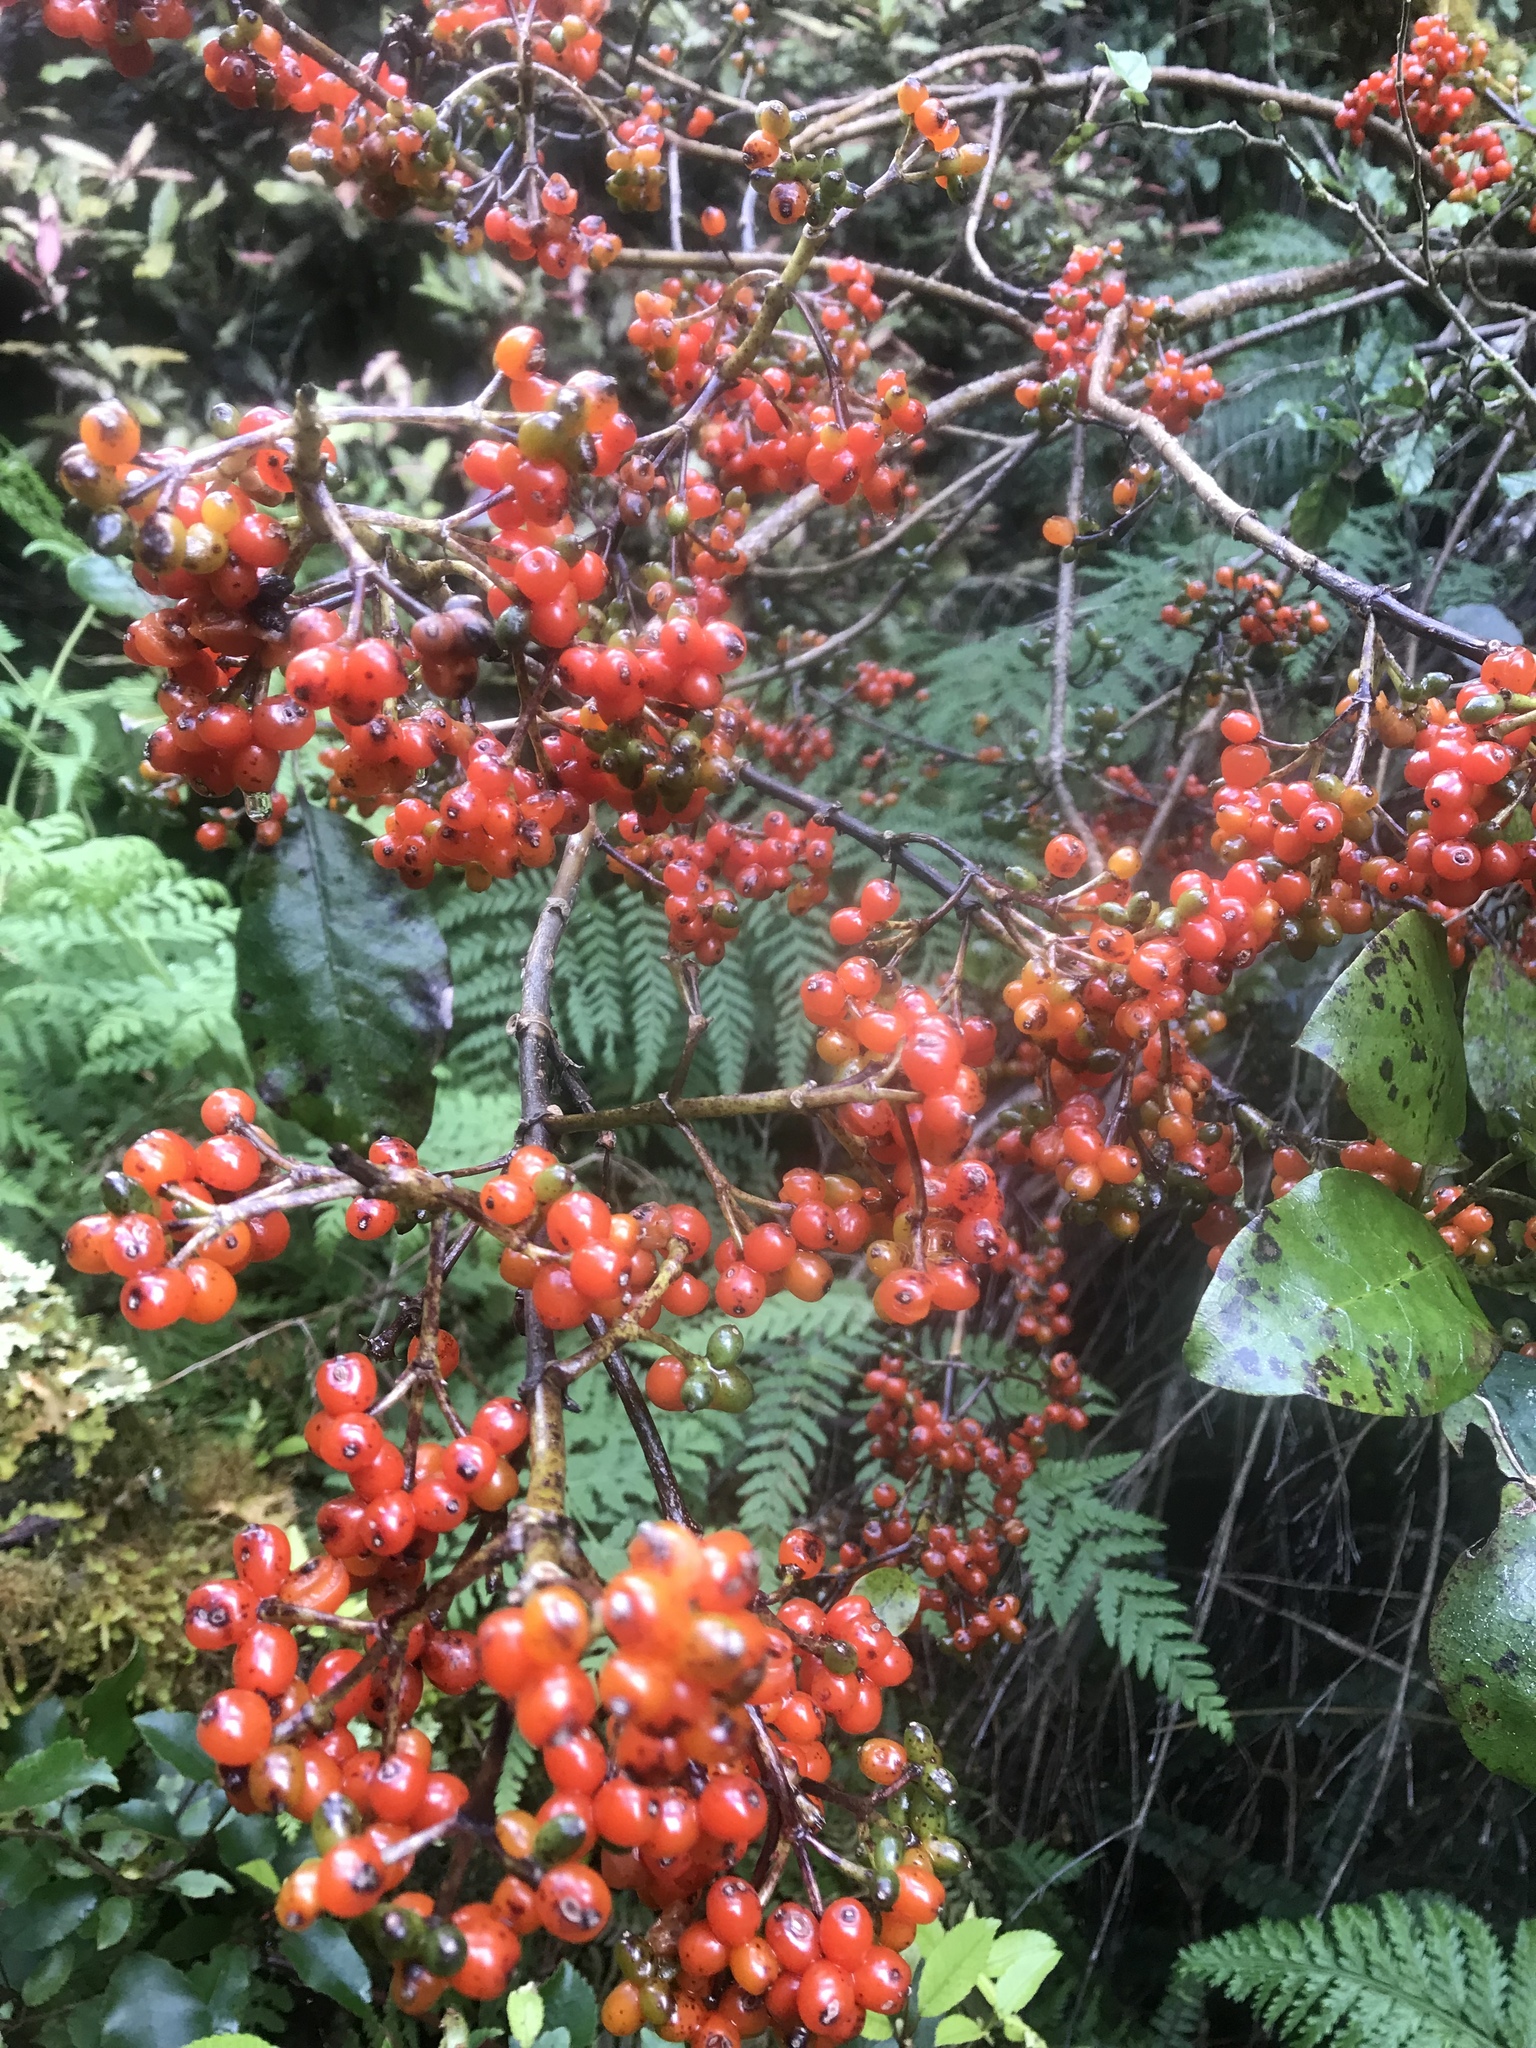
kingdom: Plantae
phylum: Tracheophyta
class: Magnoliopsida
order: Gentianales
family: Rubiaceae
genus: Coprosma
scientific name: Coprosma autumnalis
